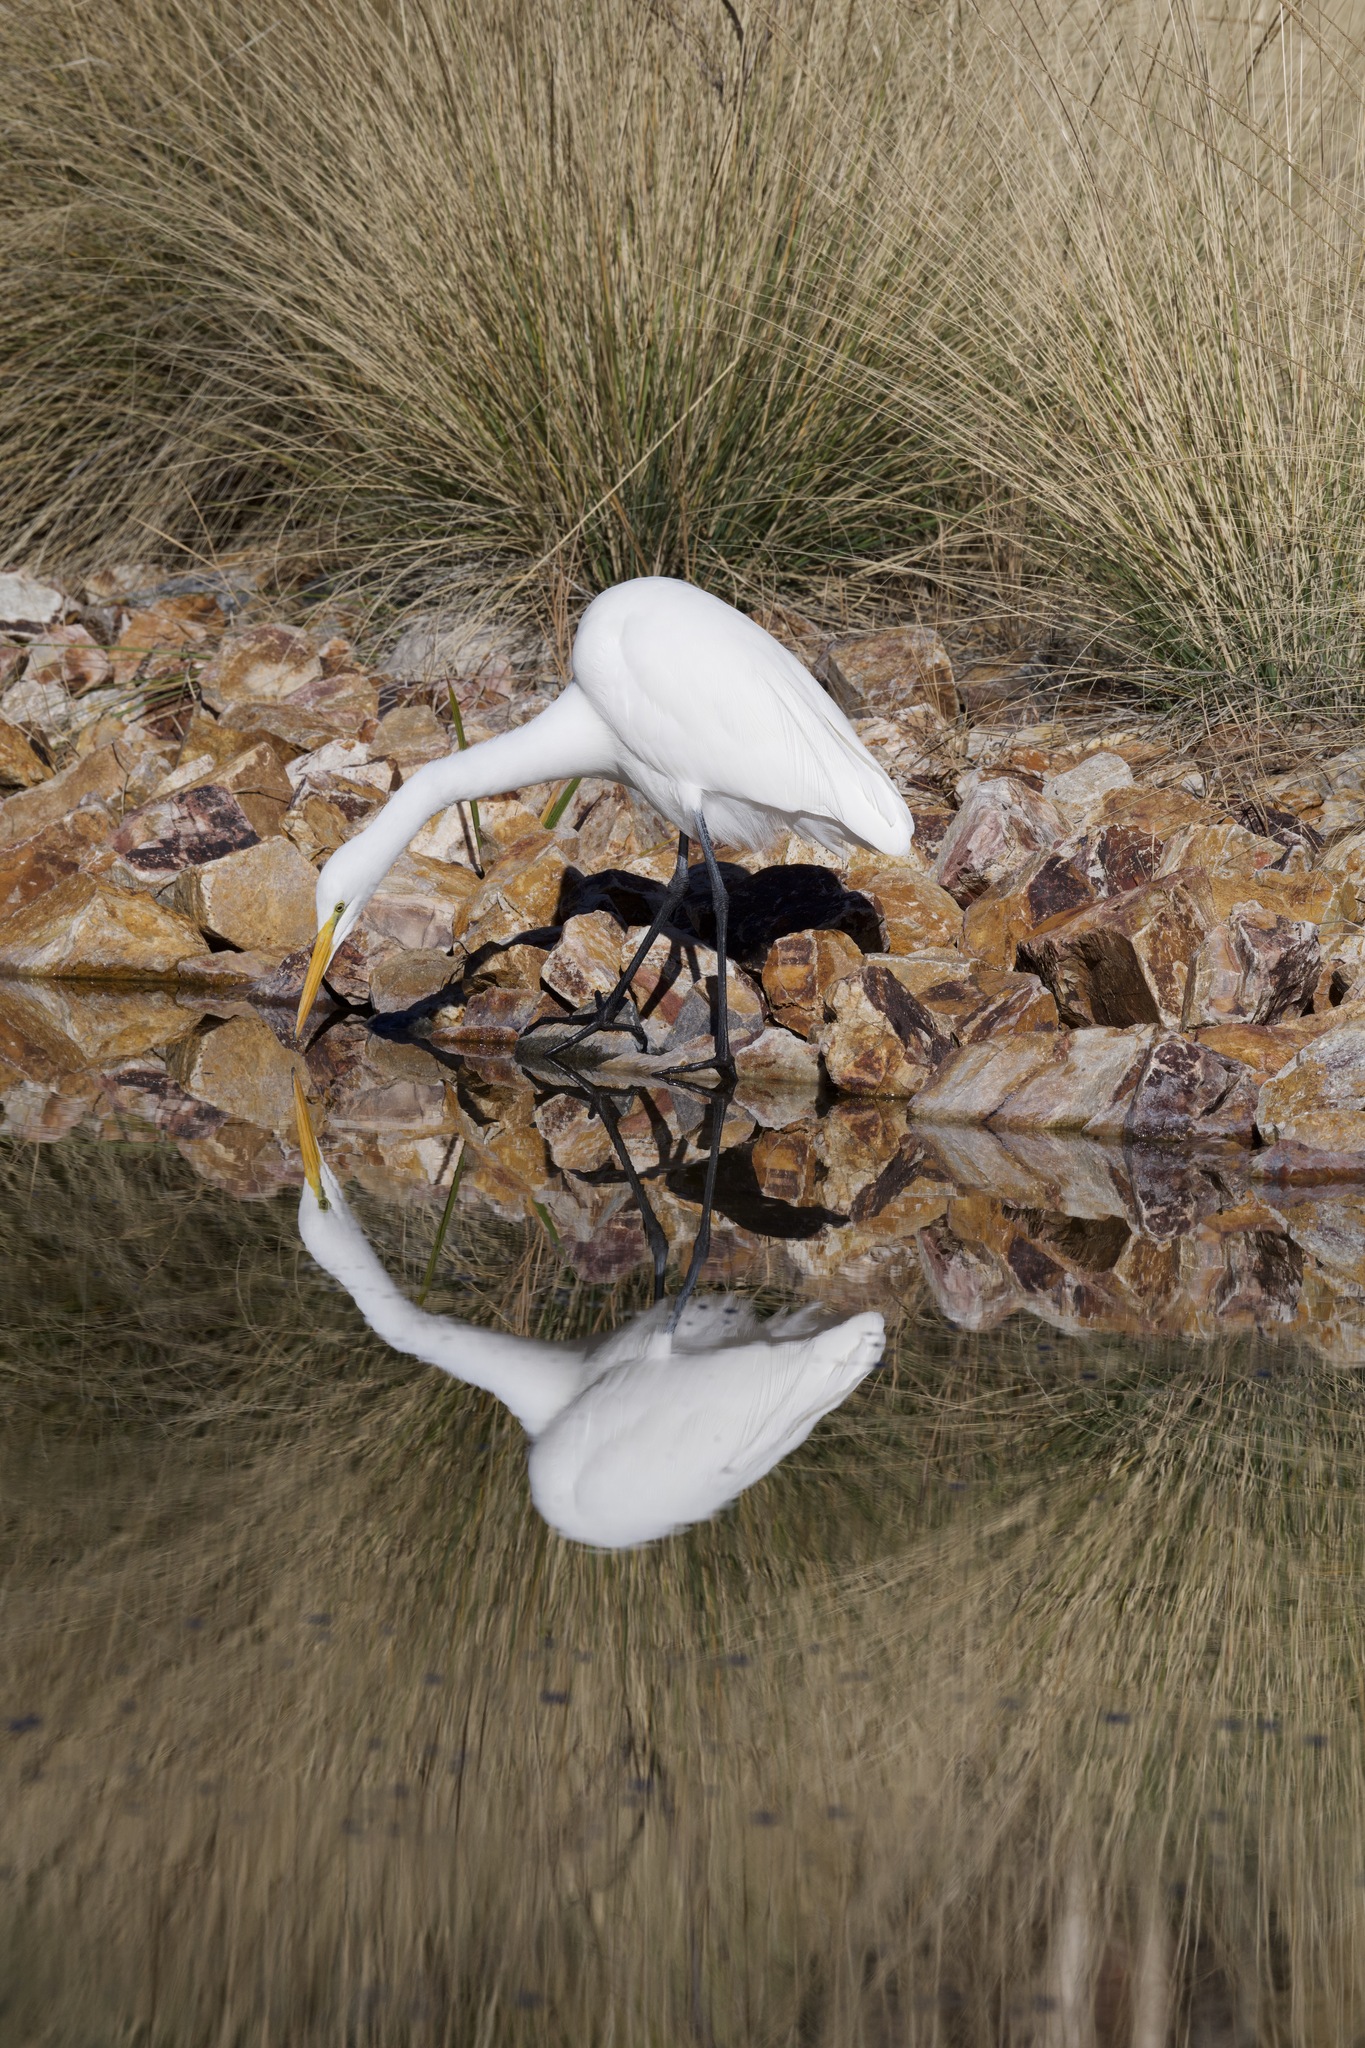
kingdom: Animalia
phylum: Chordata
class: Aves
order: Pelecaniformes
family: Ardeidae
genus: Ardea
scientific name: Ardea alba
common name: Great egret
